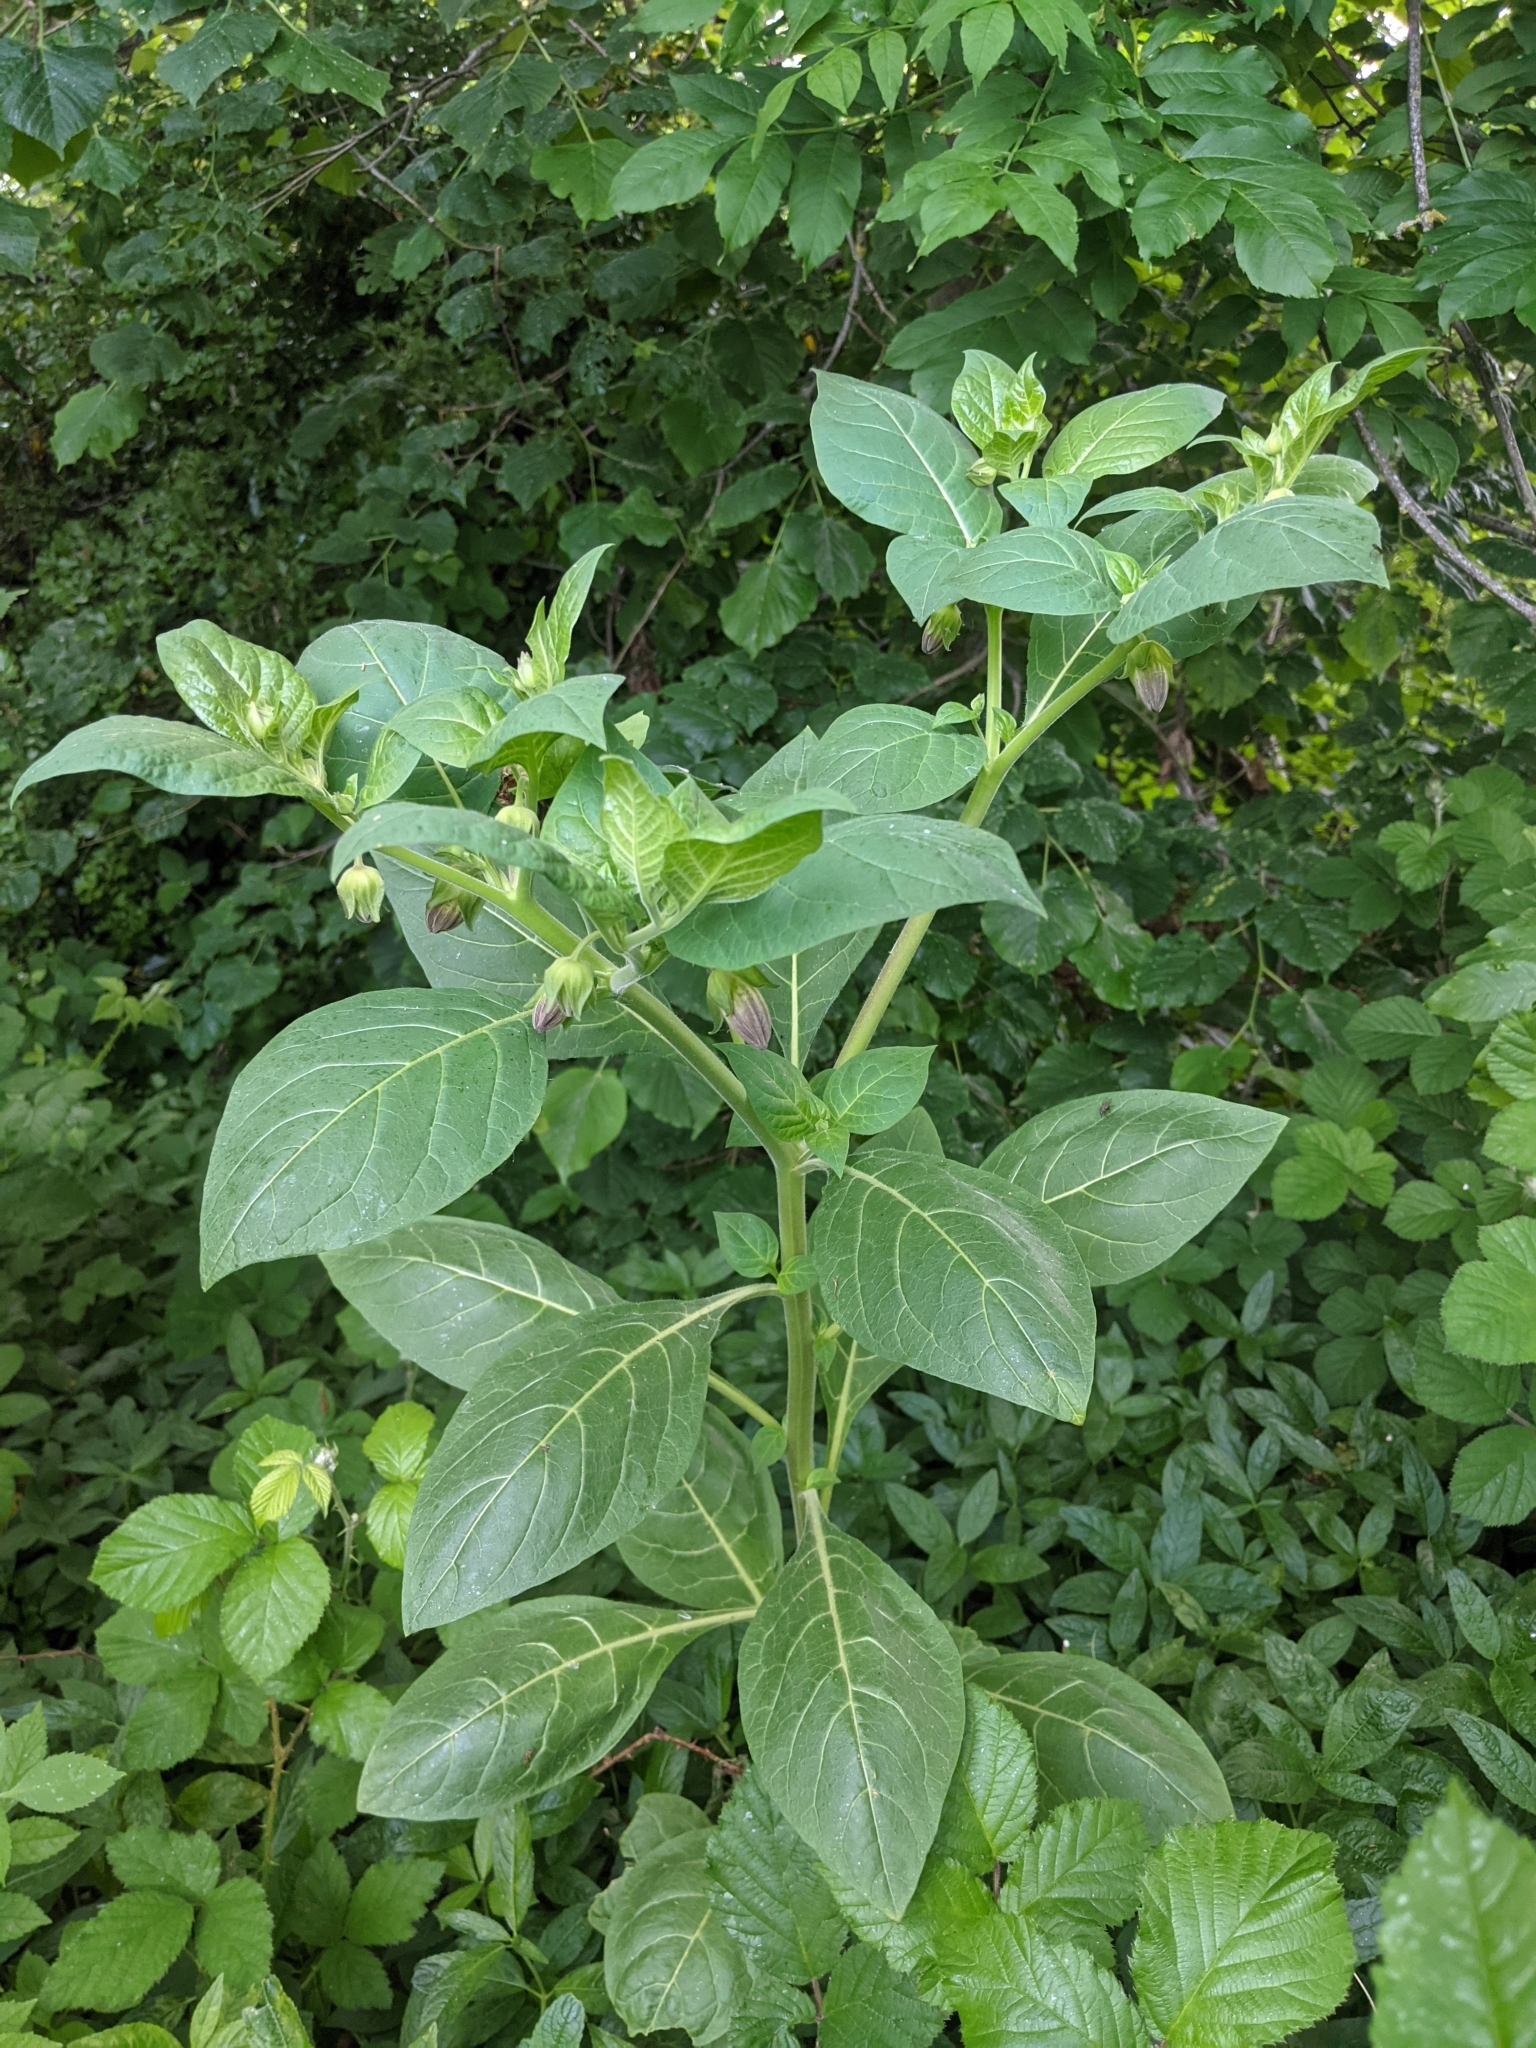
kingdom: Plantae
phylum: Tracheophyta
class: Magnoliopsida
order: Solanales
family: Solanaceae
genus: Atropa
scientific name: Atropa belladonna
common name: Deadly nightshade
